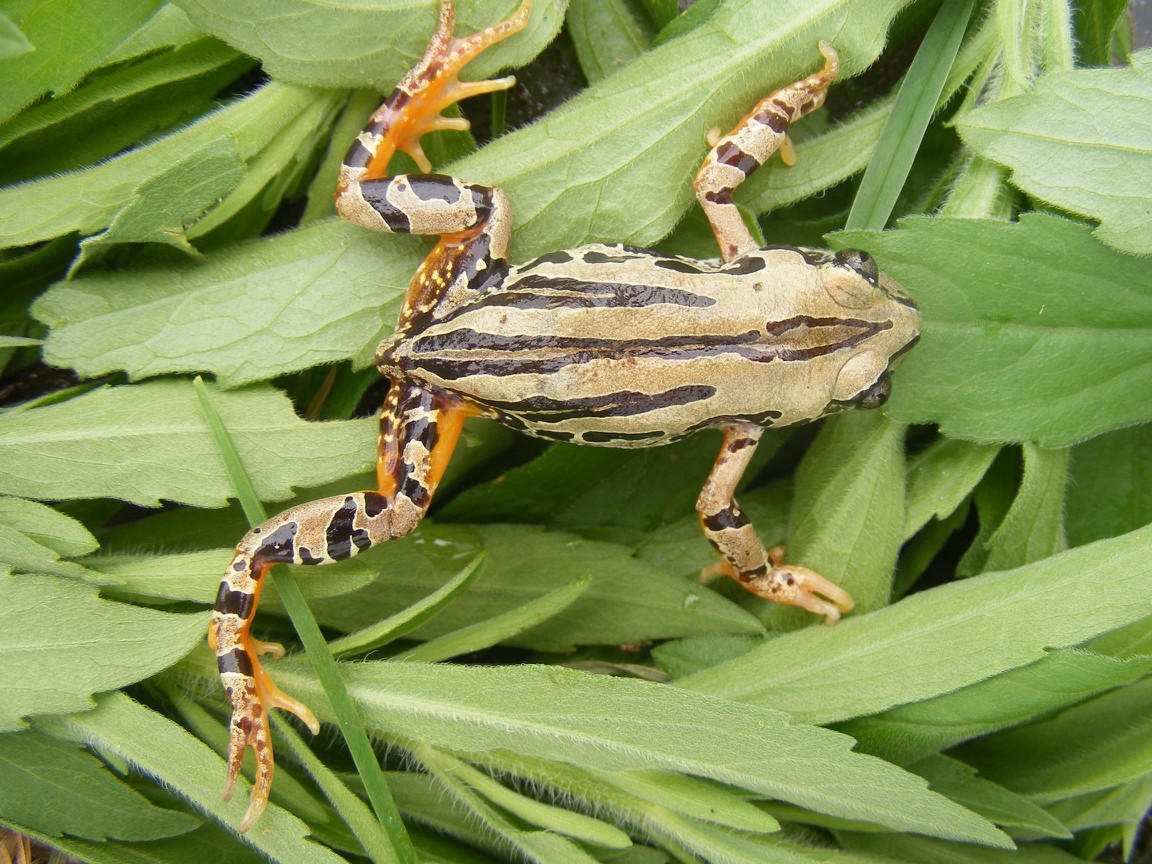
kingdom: Animalia
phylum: Chordata
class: Amphibia
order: Anura
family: Hyperoliidae
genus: Semnodactylus
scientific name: Semnodactylus wealii
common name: Weal's frog
